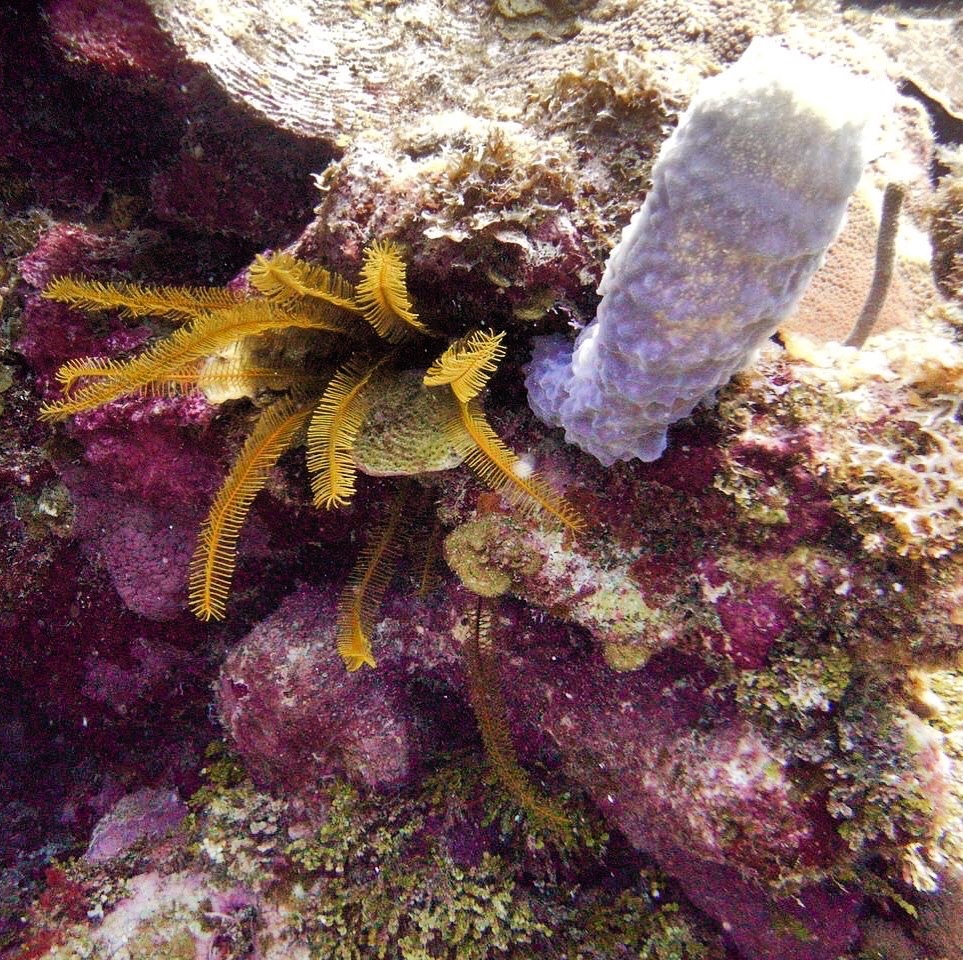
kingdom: Animalia
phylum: Echinodermata
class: Crinoidea
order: Comatulida
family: Comatulidae
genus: Davidaster
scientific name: Davidaster rubiginosus
